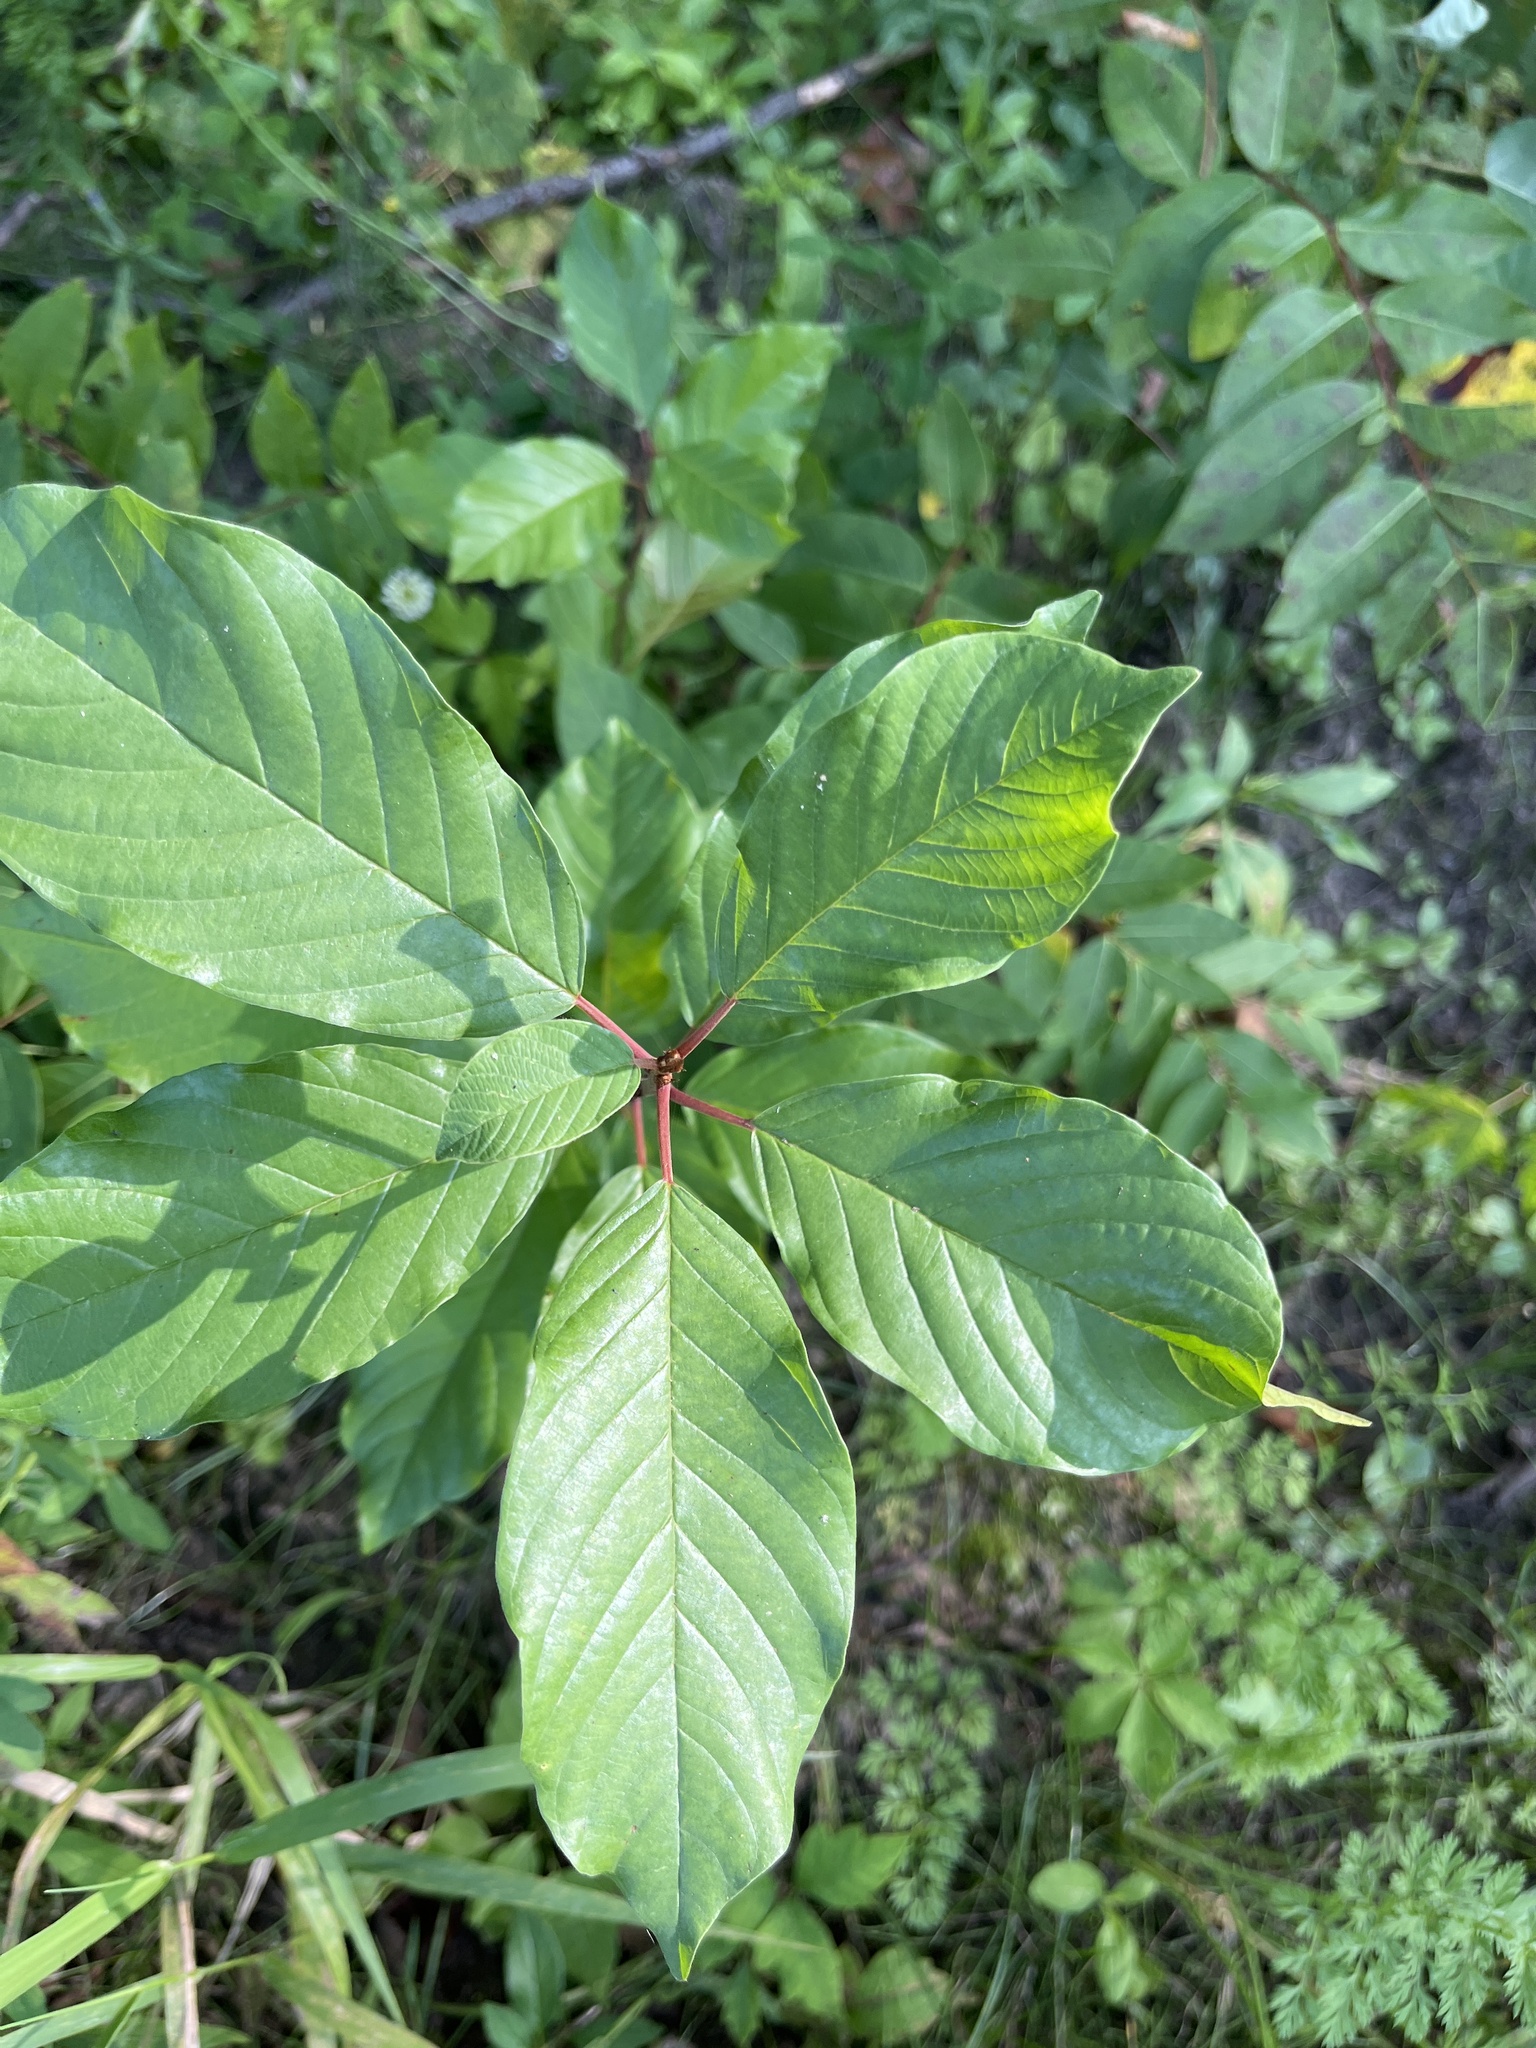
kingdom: Plantae
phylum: Tracheophyta
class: Magnoliopsida
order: Rosales
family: Rhamnaceae
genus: Frangula
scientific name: Frangula alnus
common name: Alder buckthorn
